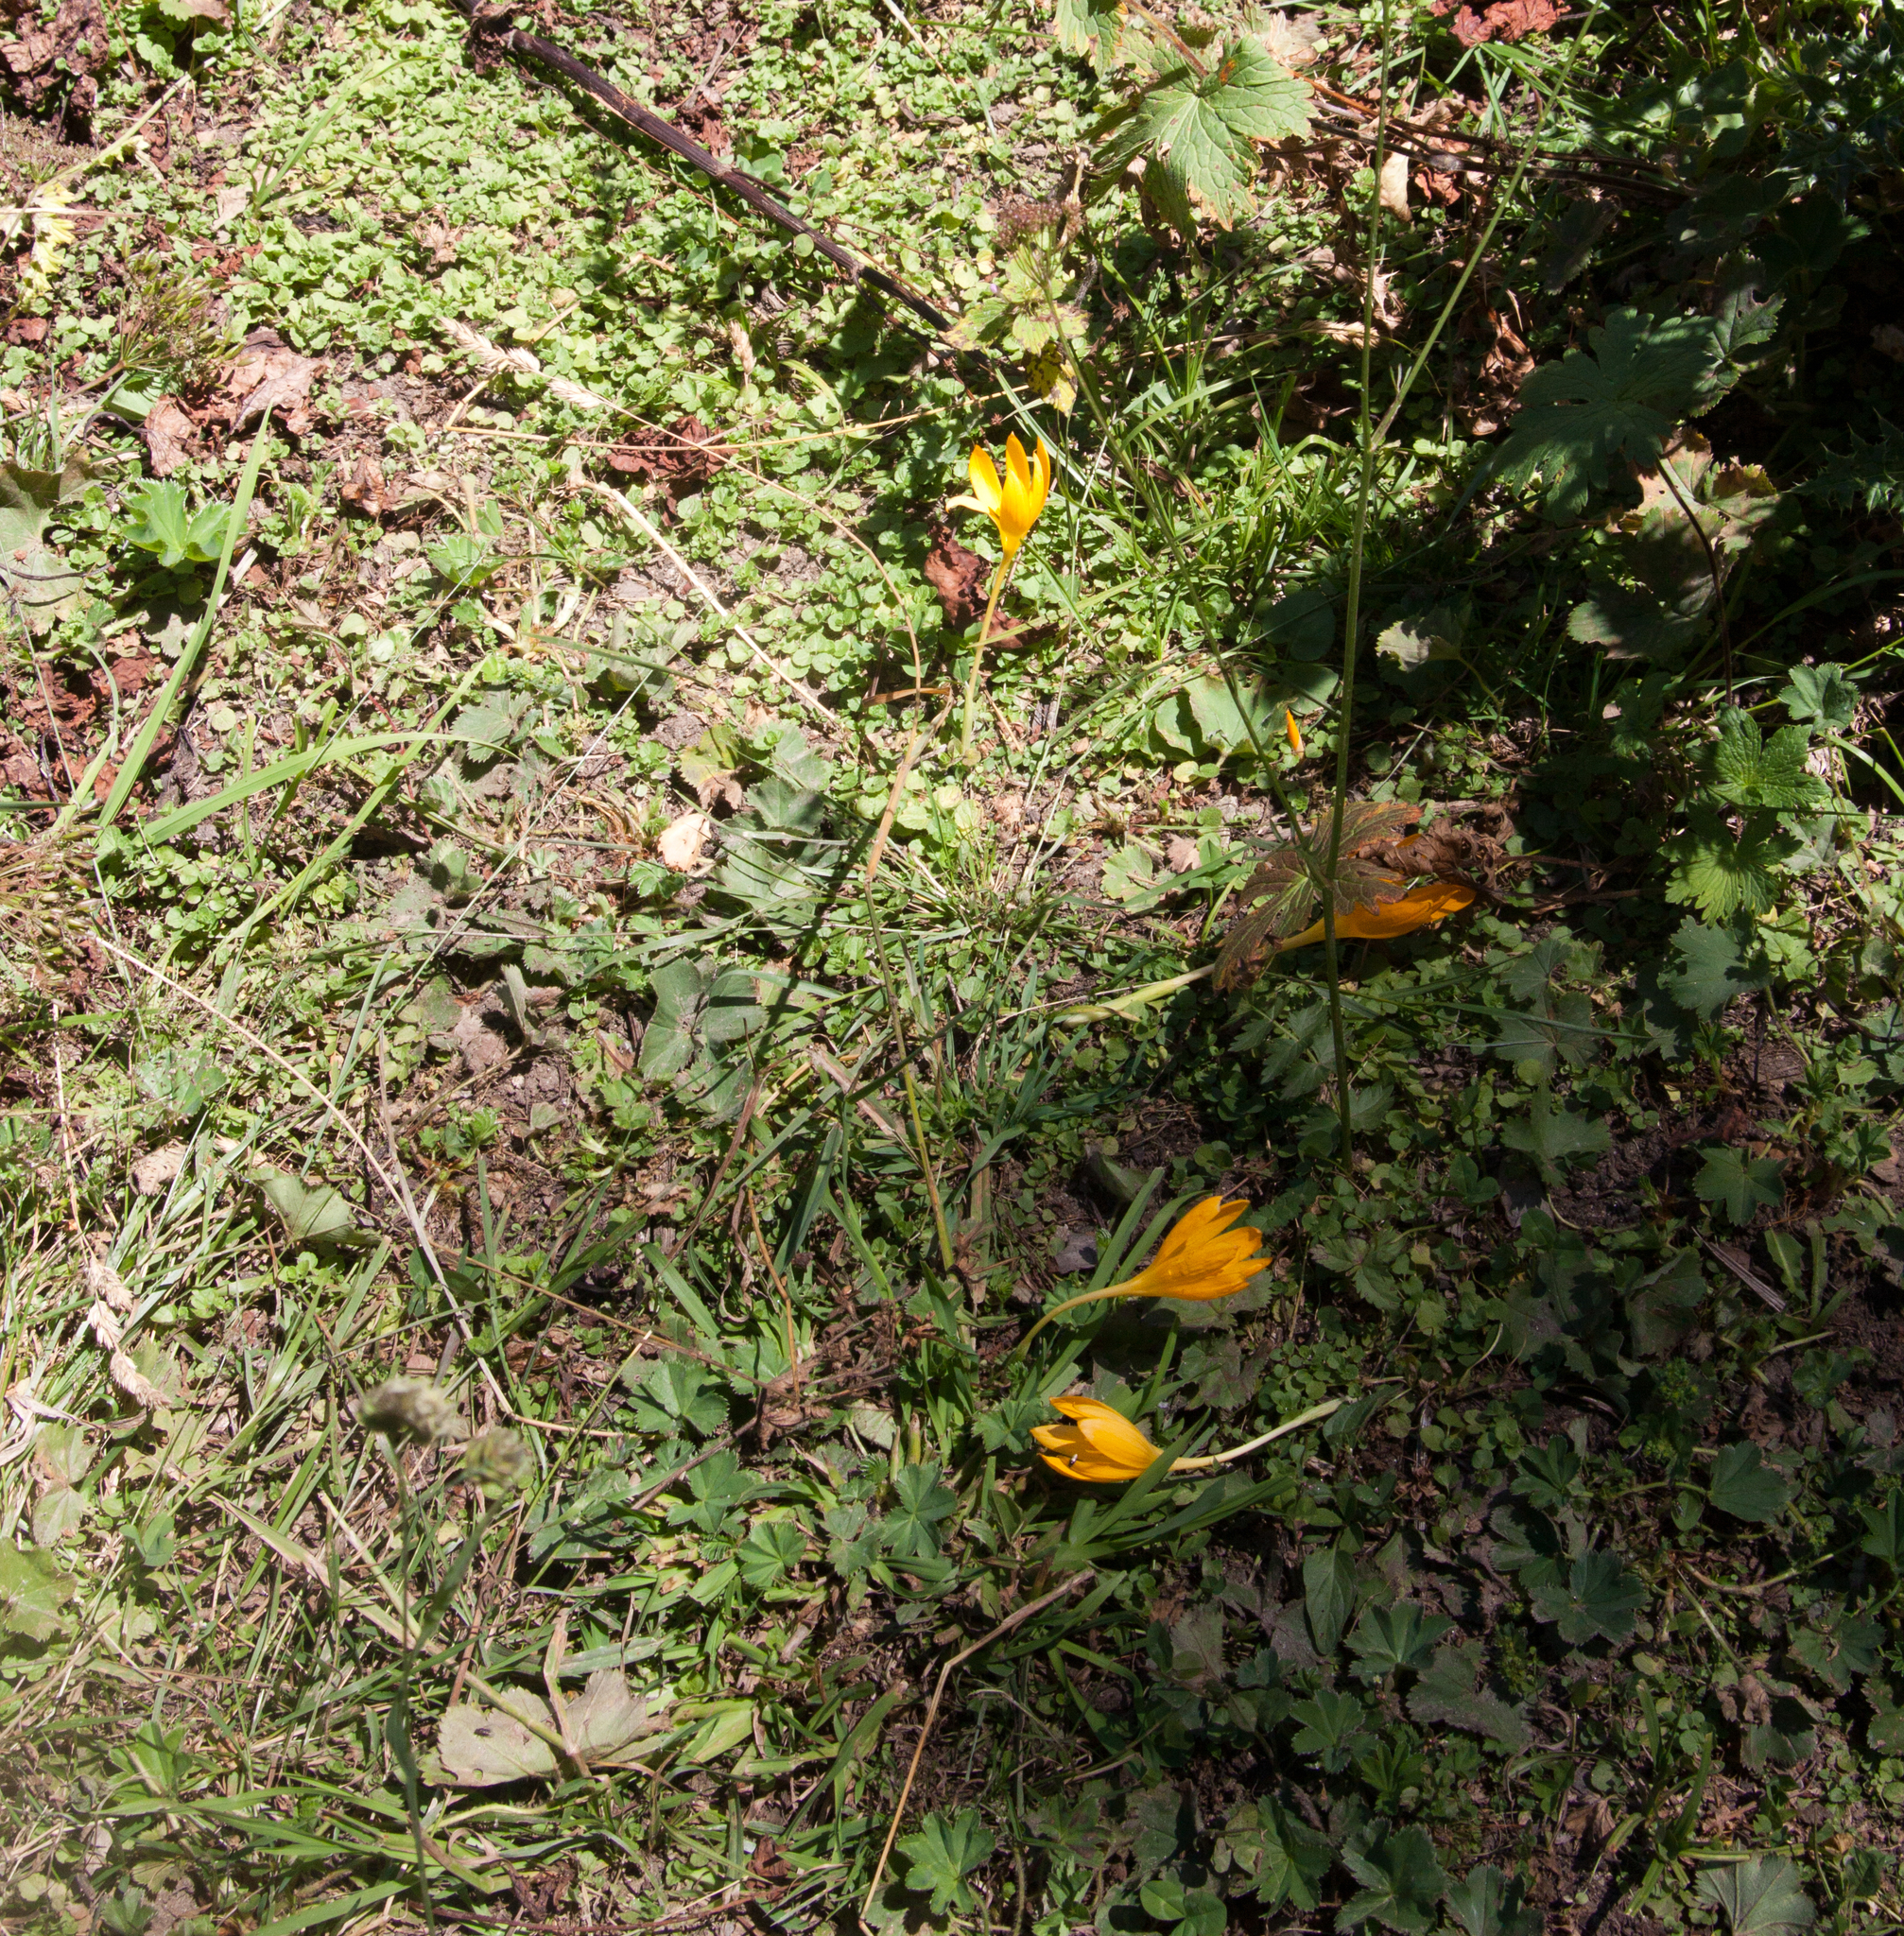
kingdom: Plantae
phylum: Tracheophyta
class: Liliopsida
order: Asparagales
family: Iridaceae
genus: Crocus
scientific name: Crocus scharojanii
